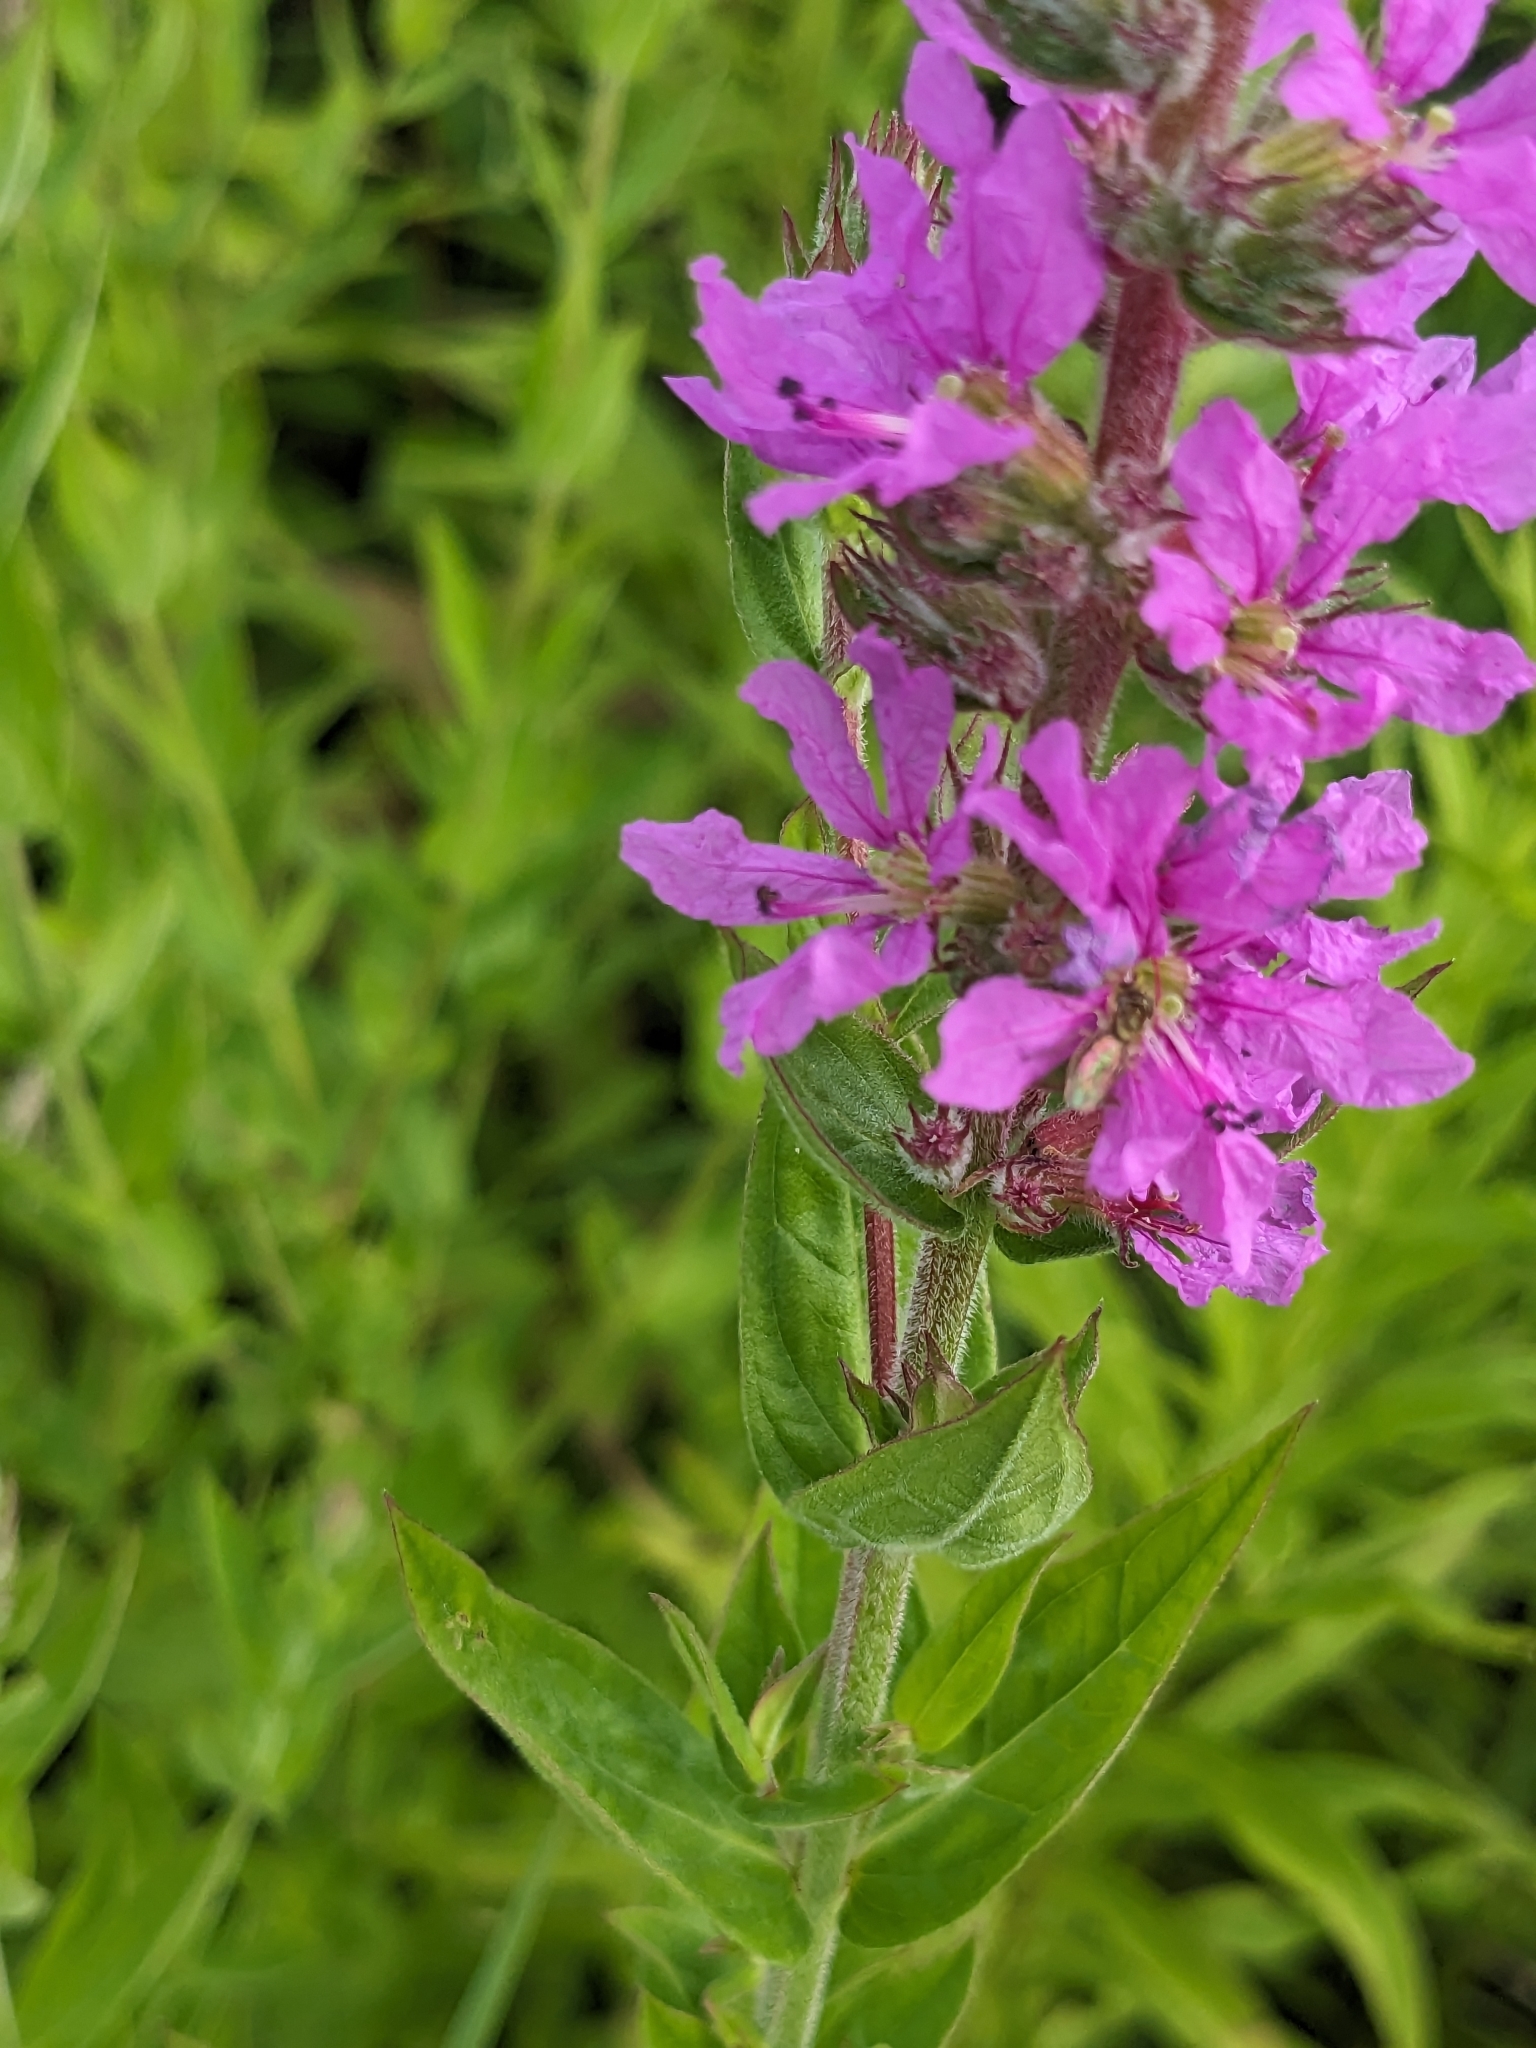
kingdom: Plantae
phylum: Tracheophyta
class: Magnoliopsida
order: Myrtales
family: Lythraceae
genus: Lythrum
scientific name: Lythrum salicaria
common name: Purple loosestrife
